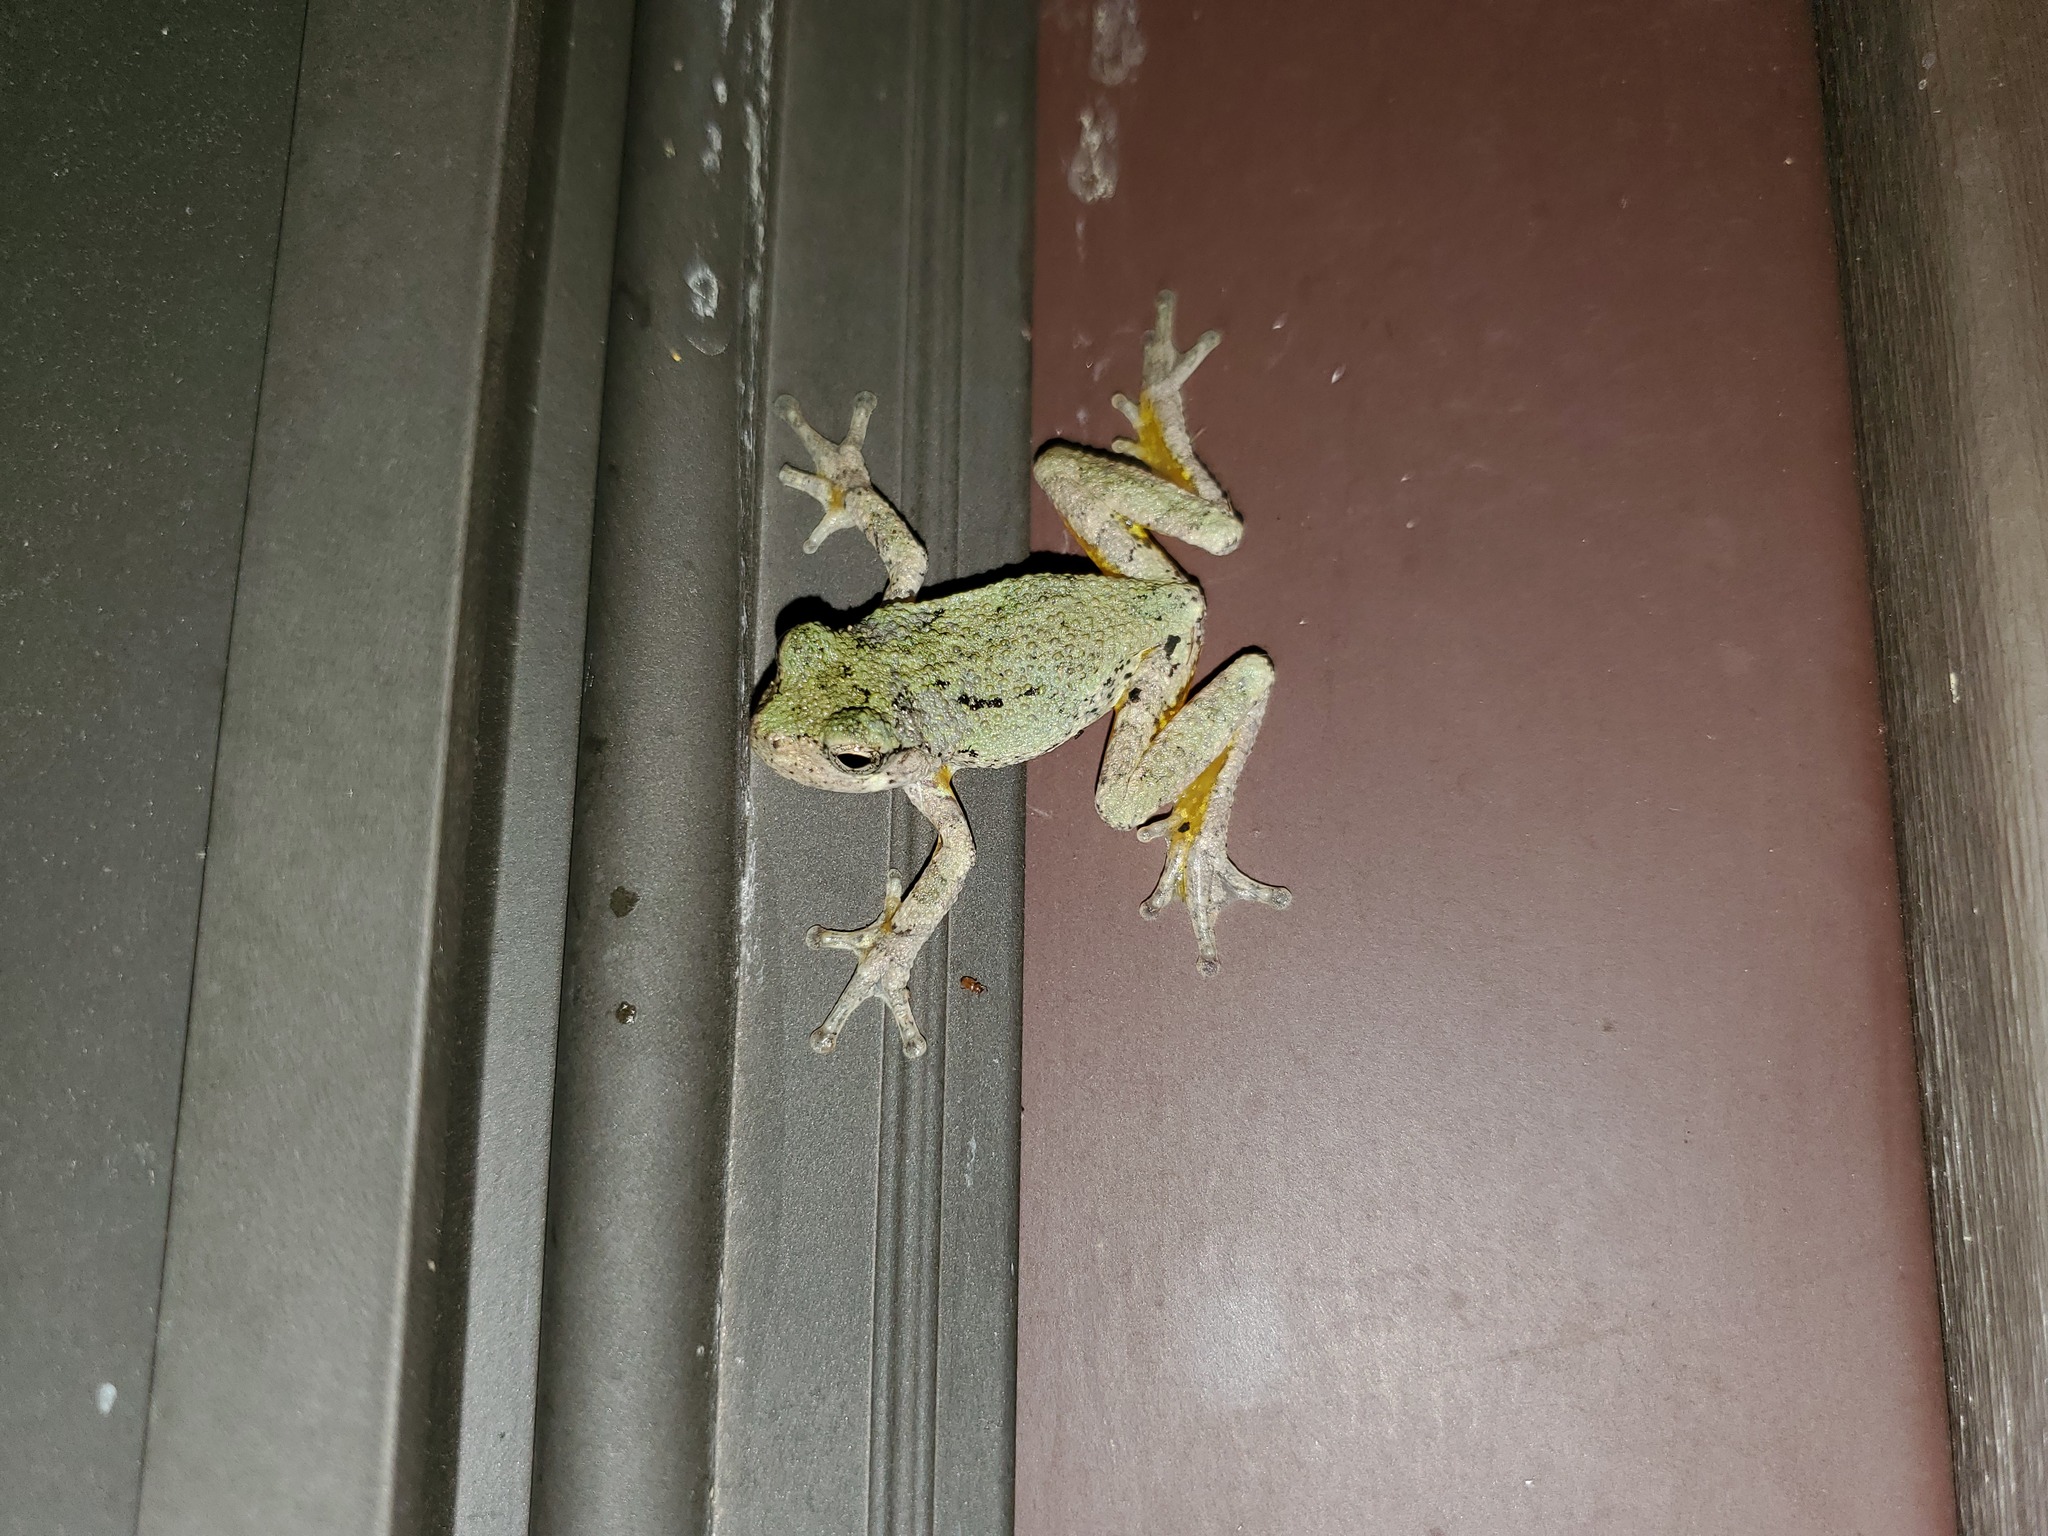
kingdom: Animalia
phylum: Chordata
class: Amphibia
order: Anura
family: Hylidae
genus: Dryophytes
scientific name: Dryophytes chrysoscelis
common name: Cope's gray treefrog
